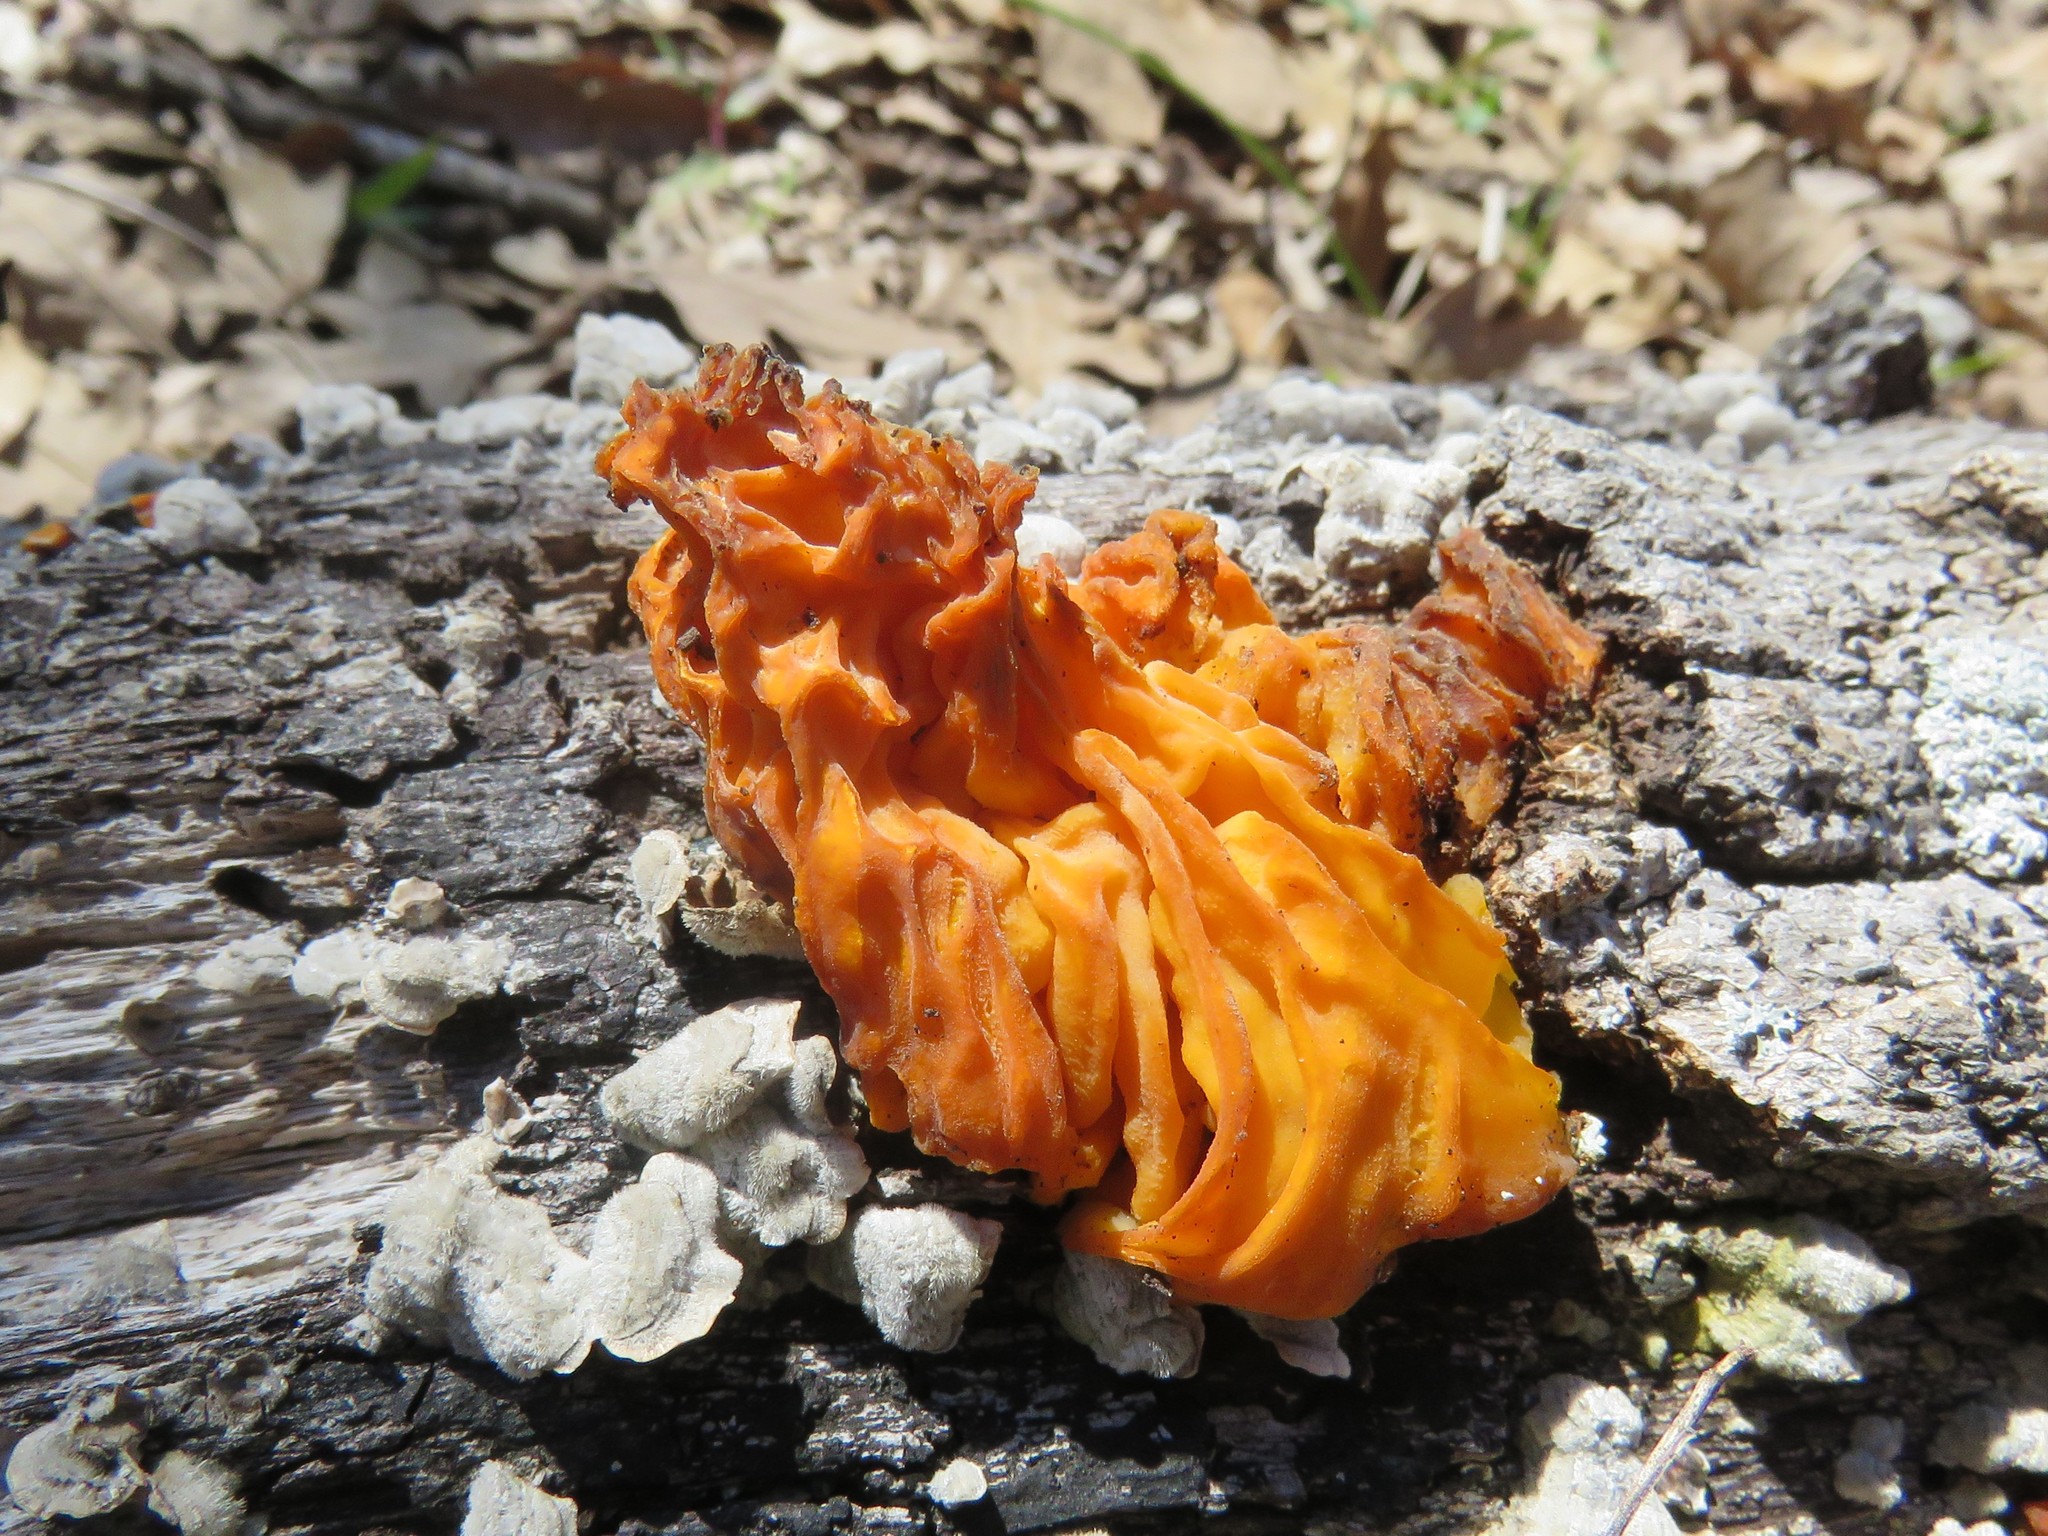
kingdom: Fungi
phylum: Basidiomycota
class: Tremellomycetes
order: Tremellales
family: Naemateliaceae
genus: Naematelia
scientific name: Naematelia aurantia
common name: Golden ear
